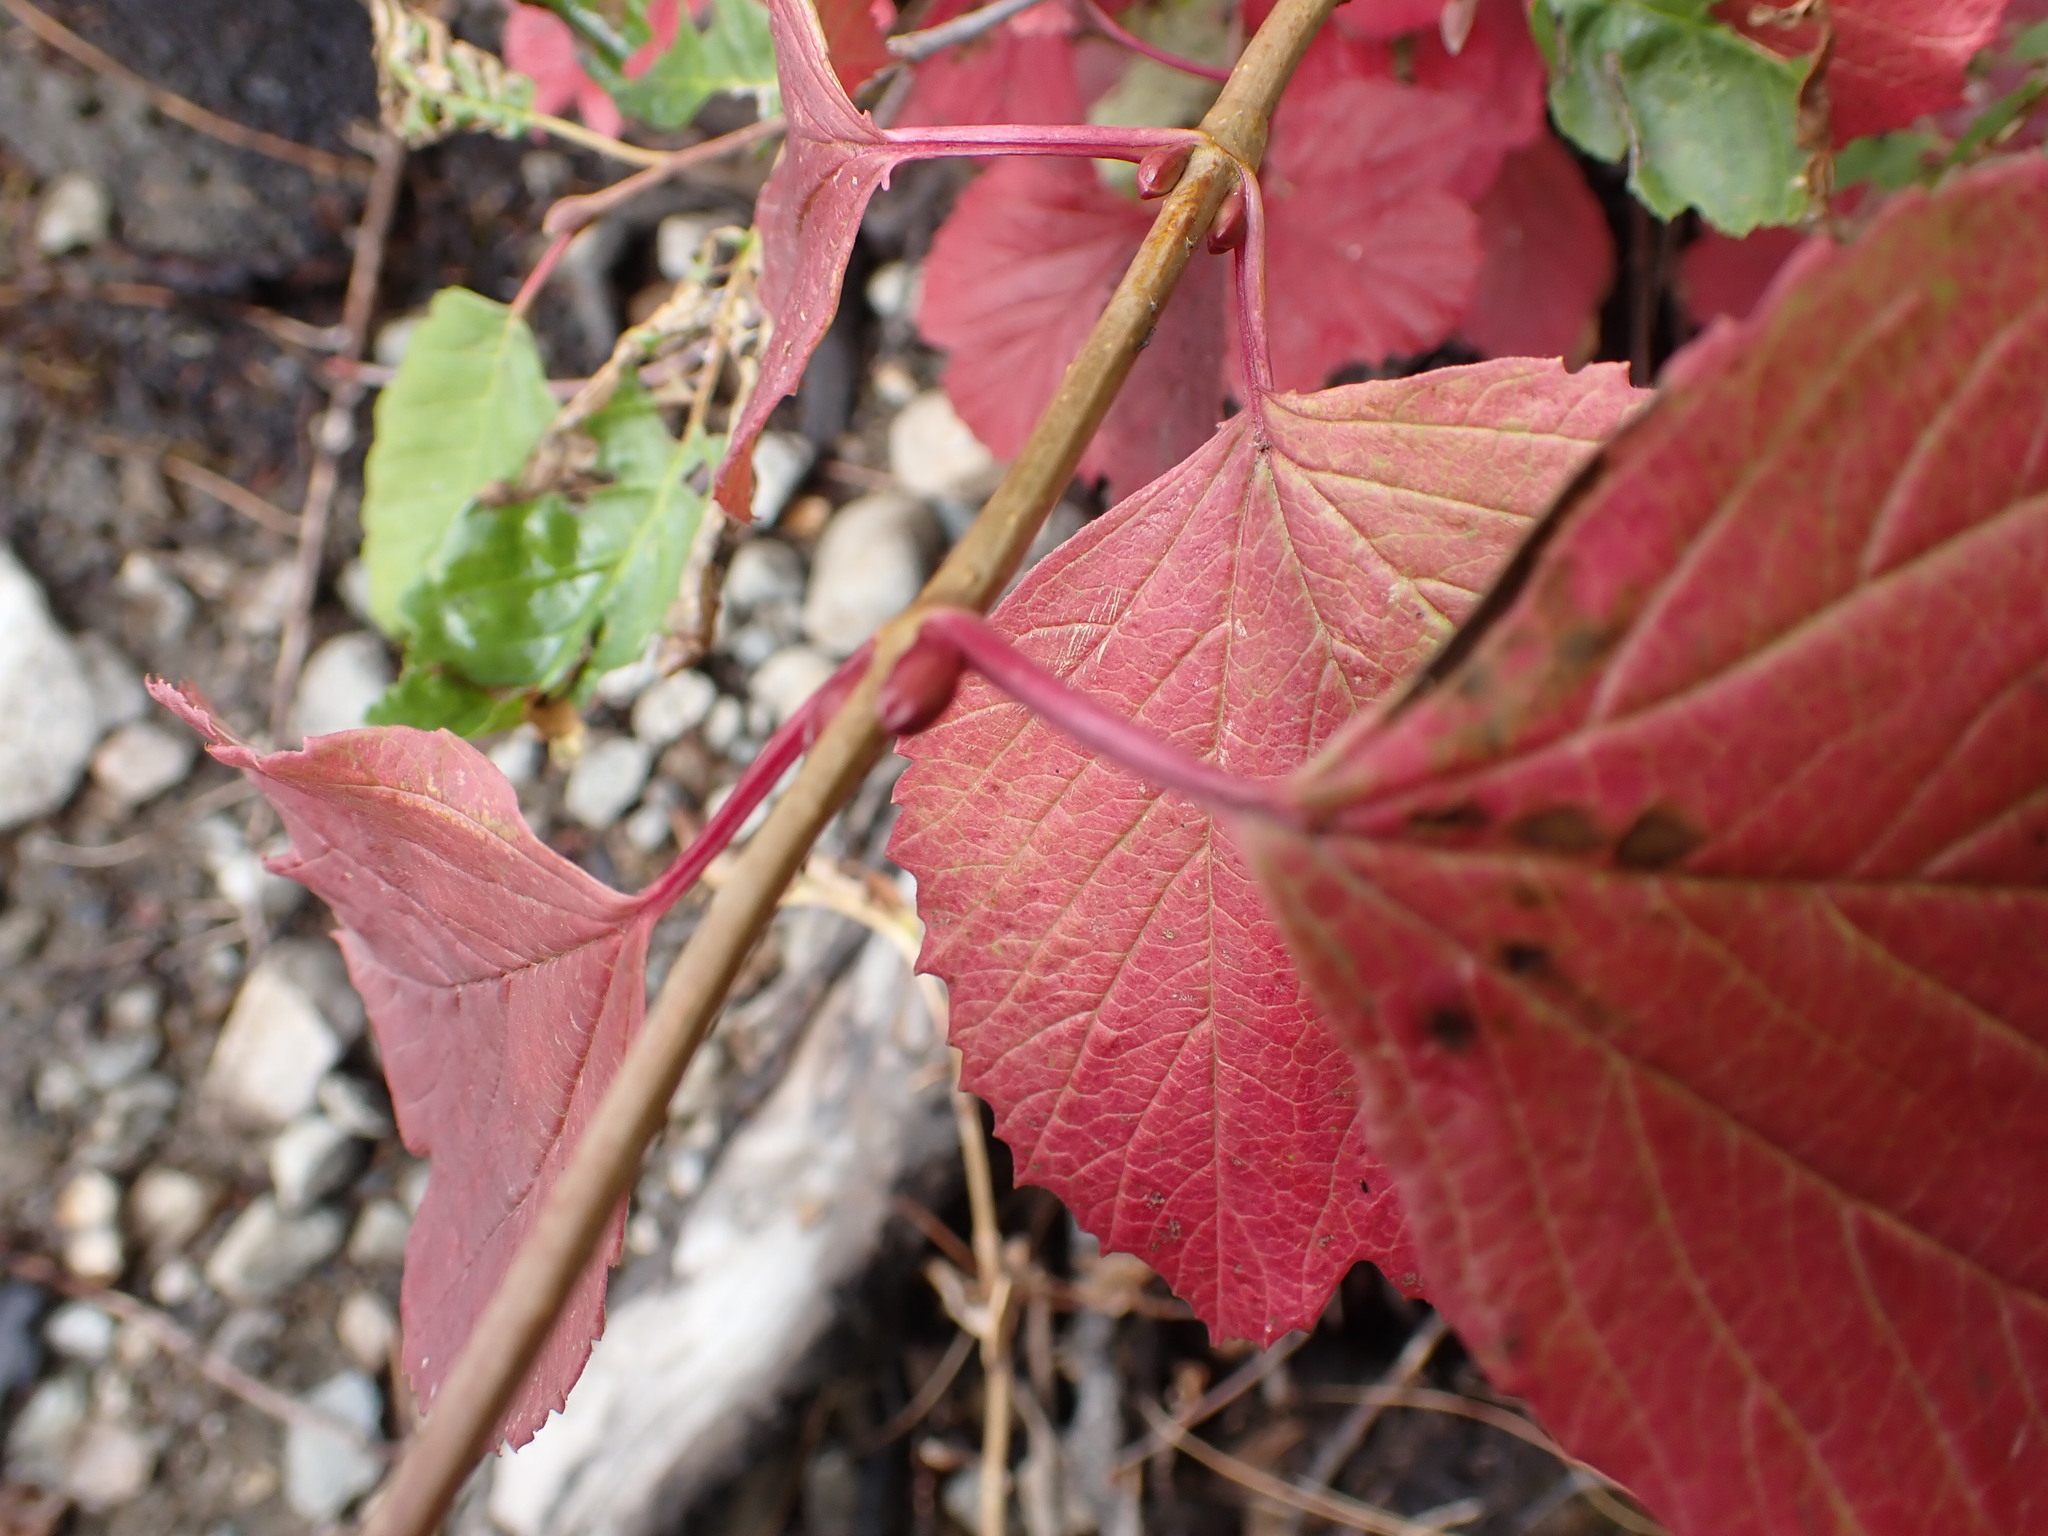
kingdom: Plantae
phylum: Tracheophyta
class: Magnoliopsida
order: Dipsacales
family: Viburnaceae
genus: Viburnum
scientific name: Viburnum edule
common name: Mooseberry
